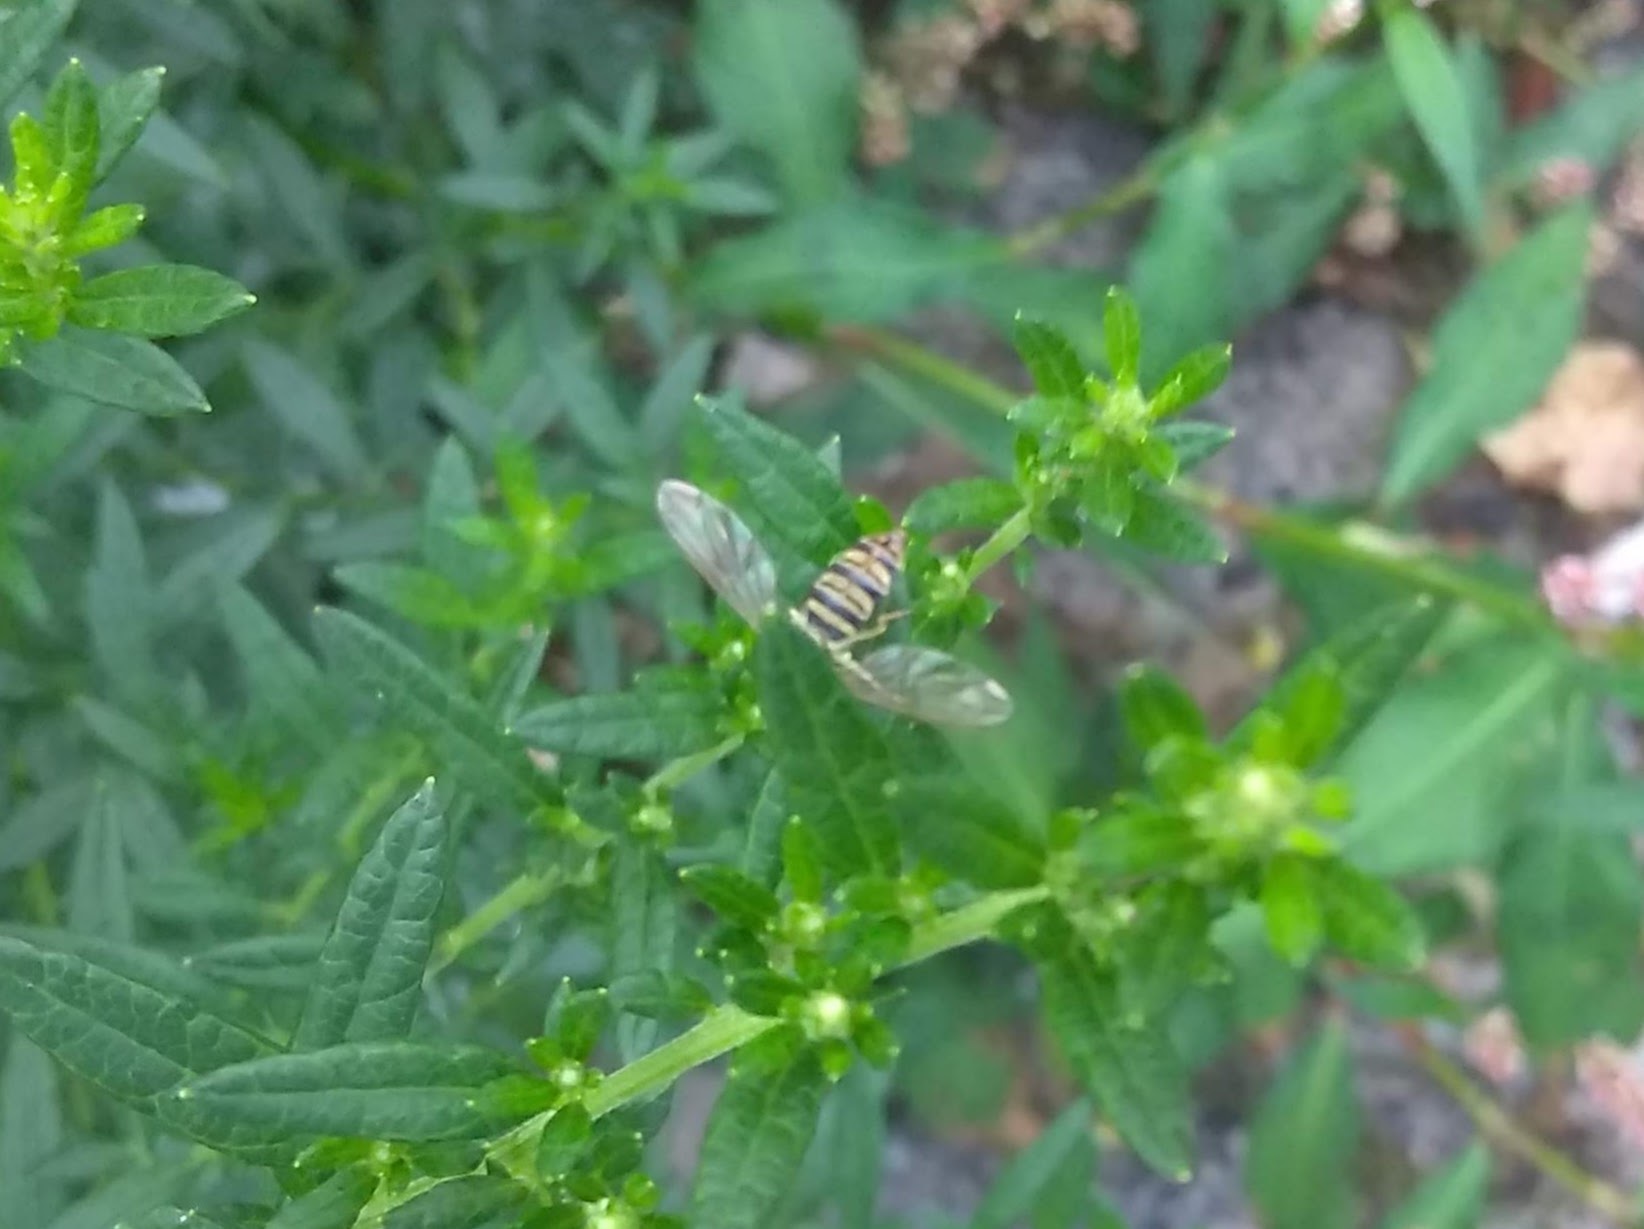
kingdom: Animalia
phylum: Arthropoda
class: Insecta
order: Diptera
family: Syrphidae
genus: Toxomerus
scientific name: Toxomerus politus
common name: Maize calligrapher
